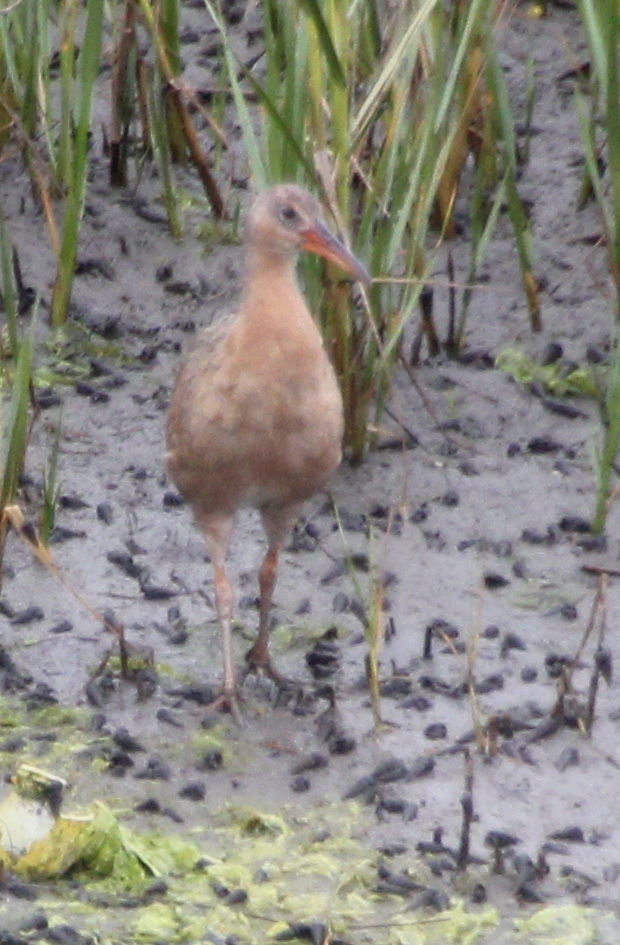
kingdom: Animalia
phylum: Chordata
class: Aves
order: Gruiformes
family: Rallidae
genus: Rallus
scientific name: Rallus obsoletus
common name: Ridgway's rail
